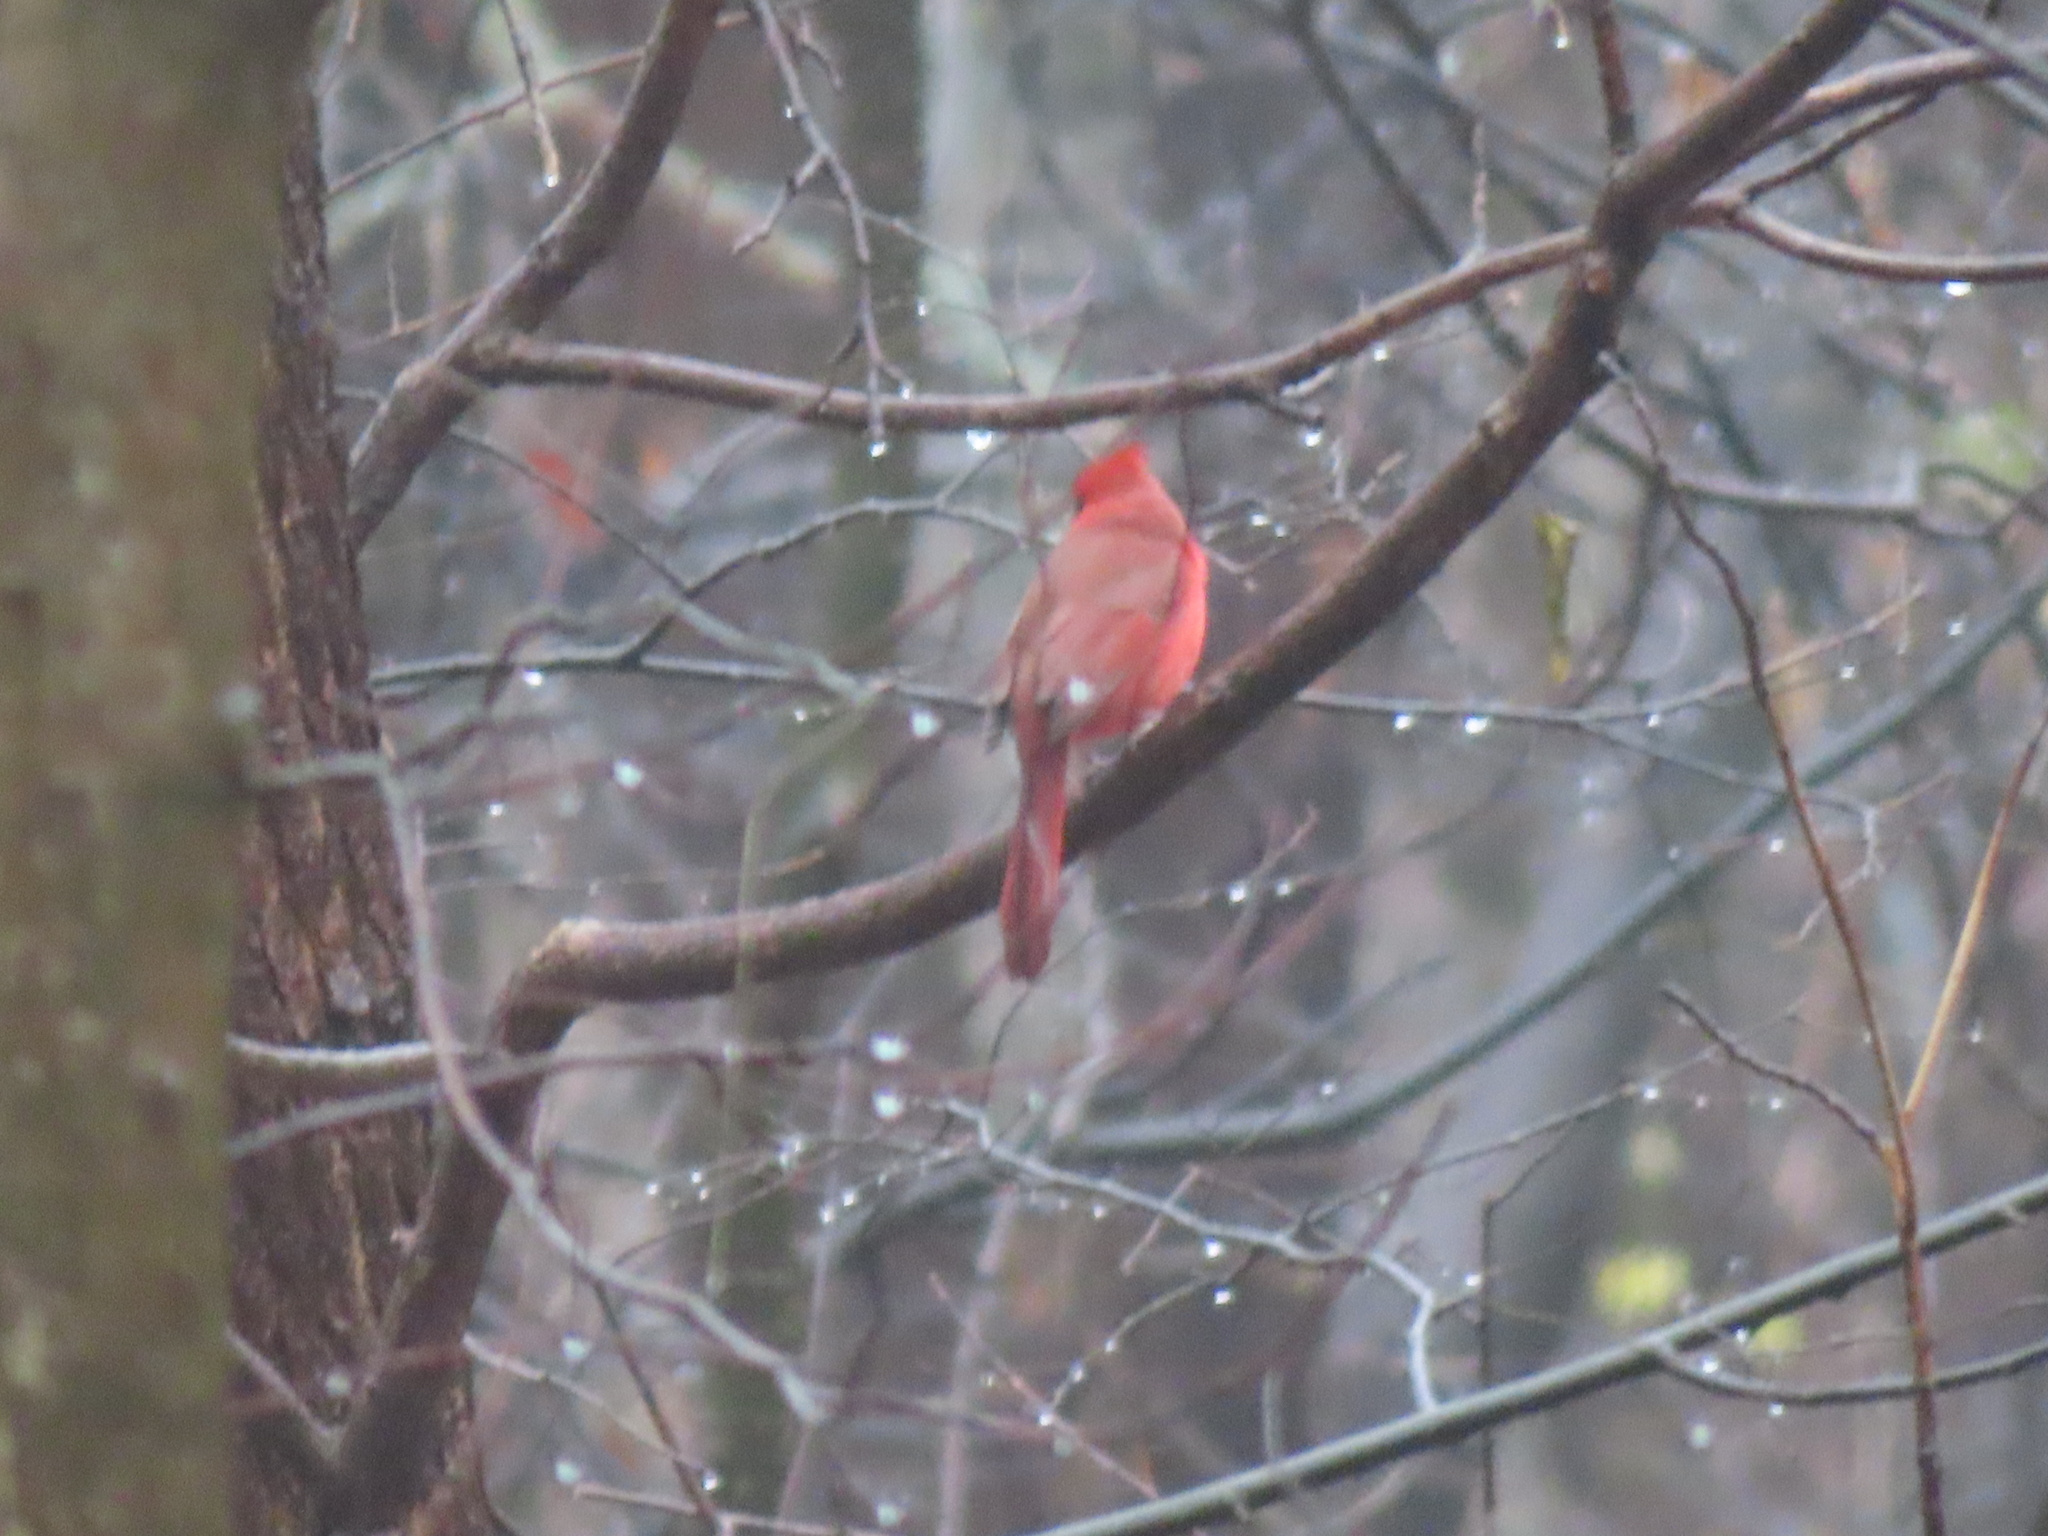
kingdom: Animalia
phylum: Chordata
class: Aves
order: Passeriformes
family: Cardinalidae
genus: Cardinalis
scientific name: Cardinalis cardinalis
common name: Northern cardinal
